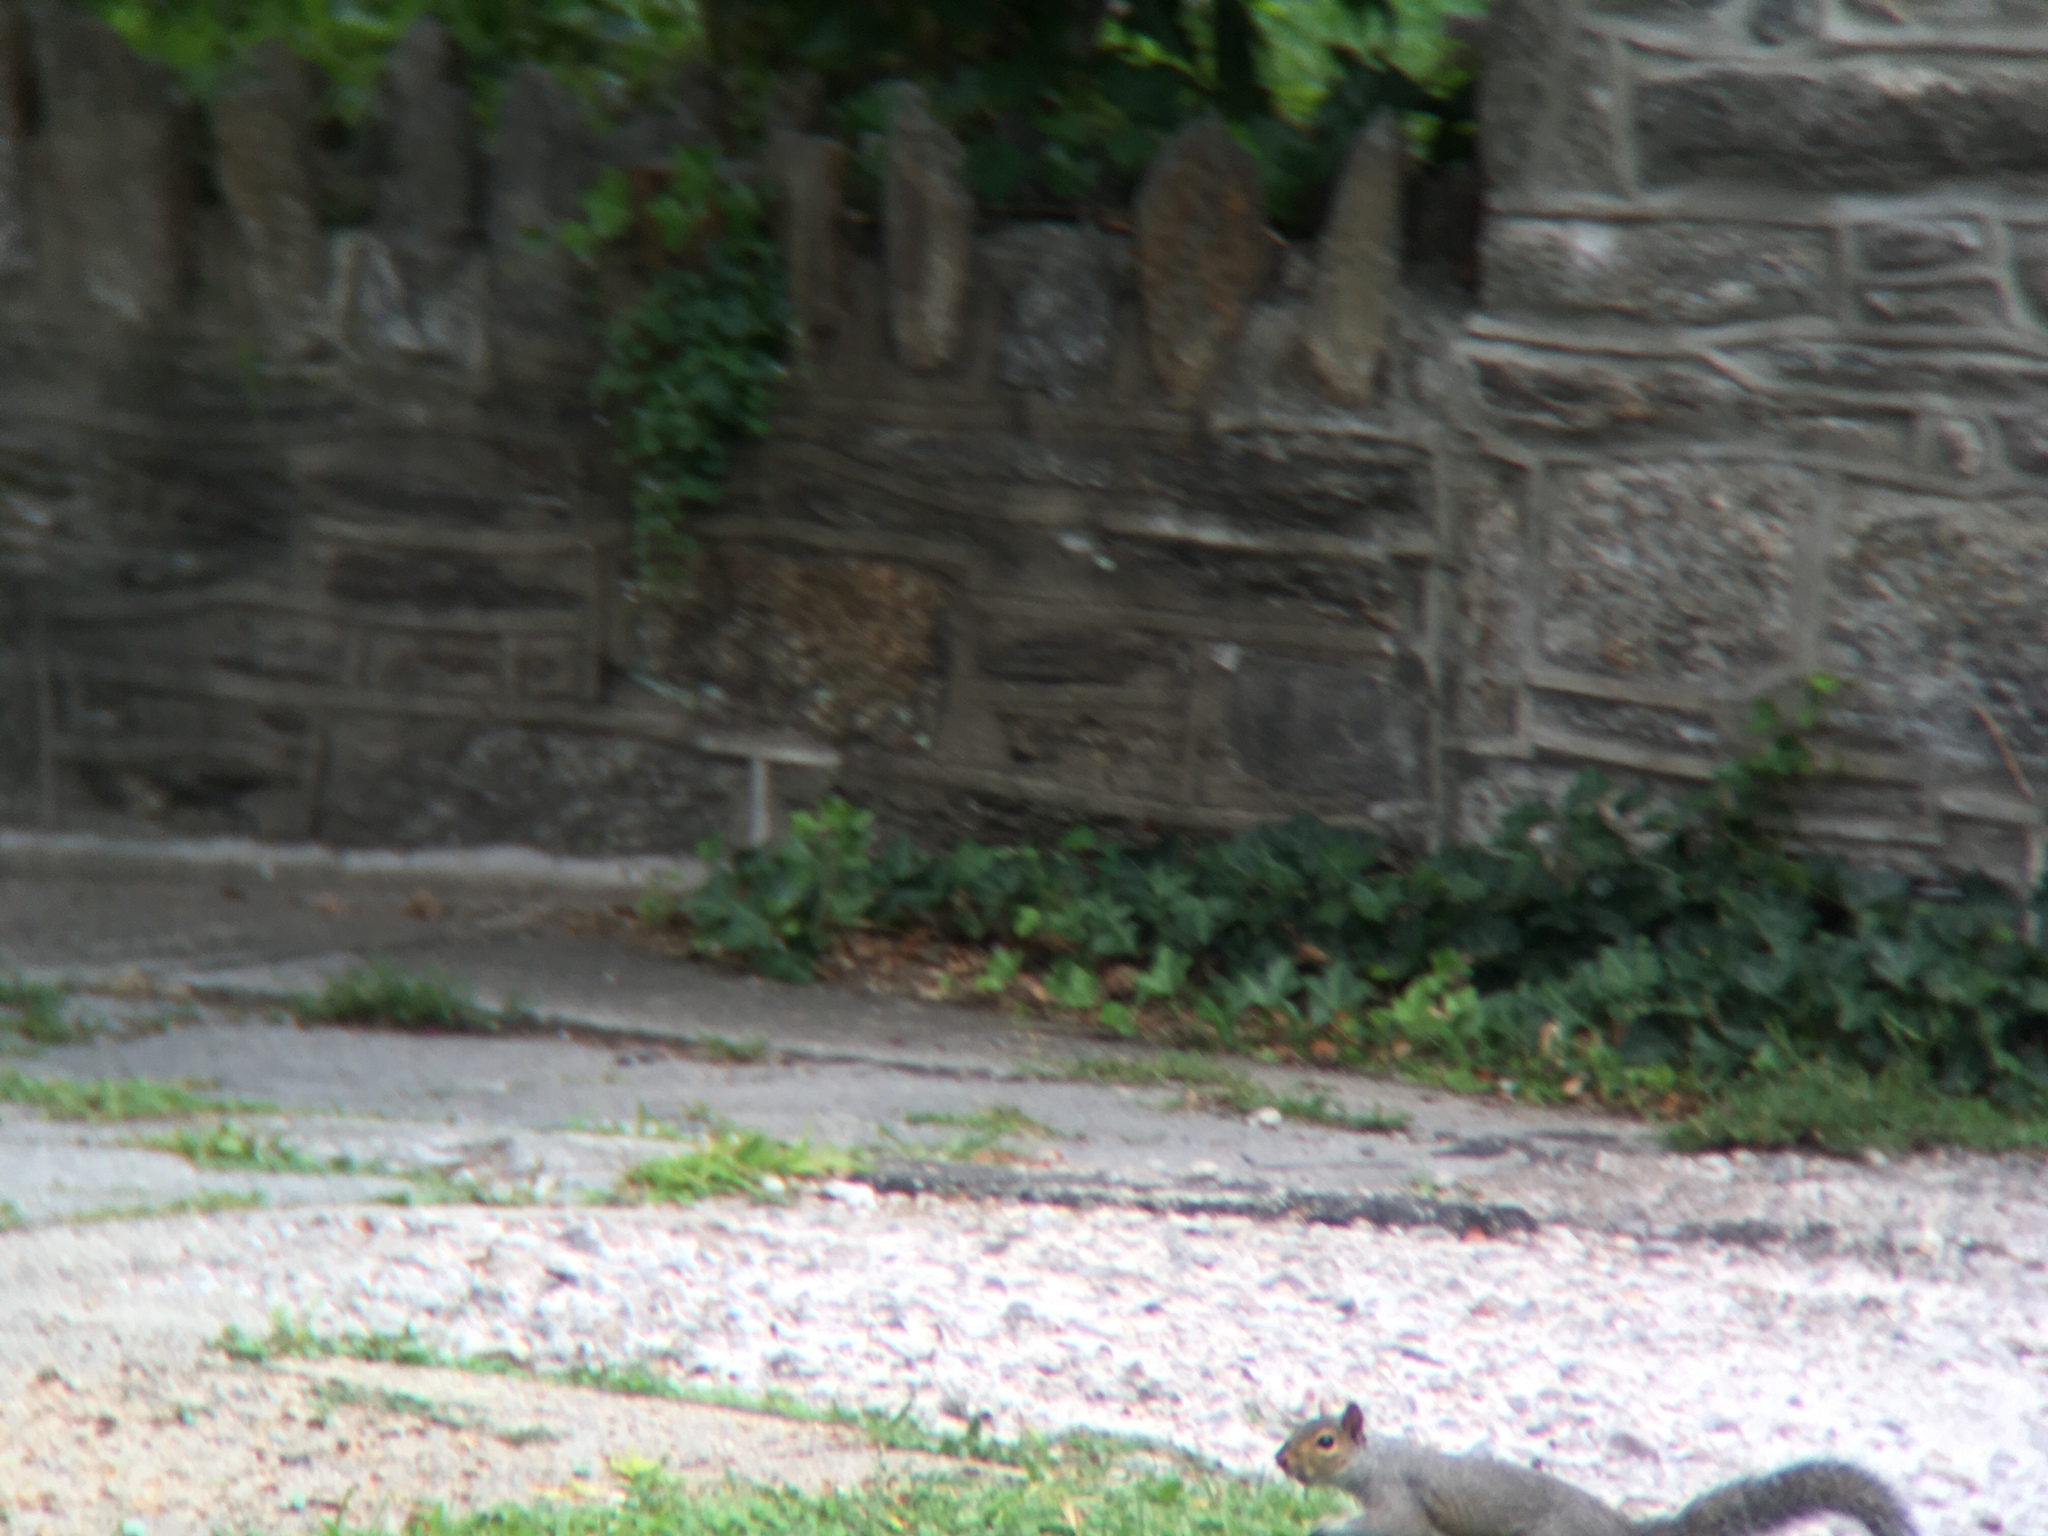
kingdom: Animalia
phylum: Chordata
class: Mammalia
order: Rodentia
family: Sciuridae
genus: Sciurus
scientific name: Sciurus carolinensis
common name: Eastern gray squirrel
